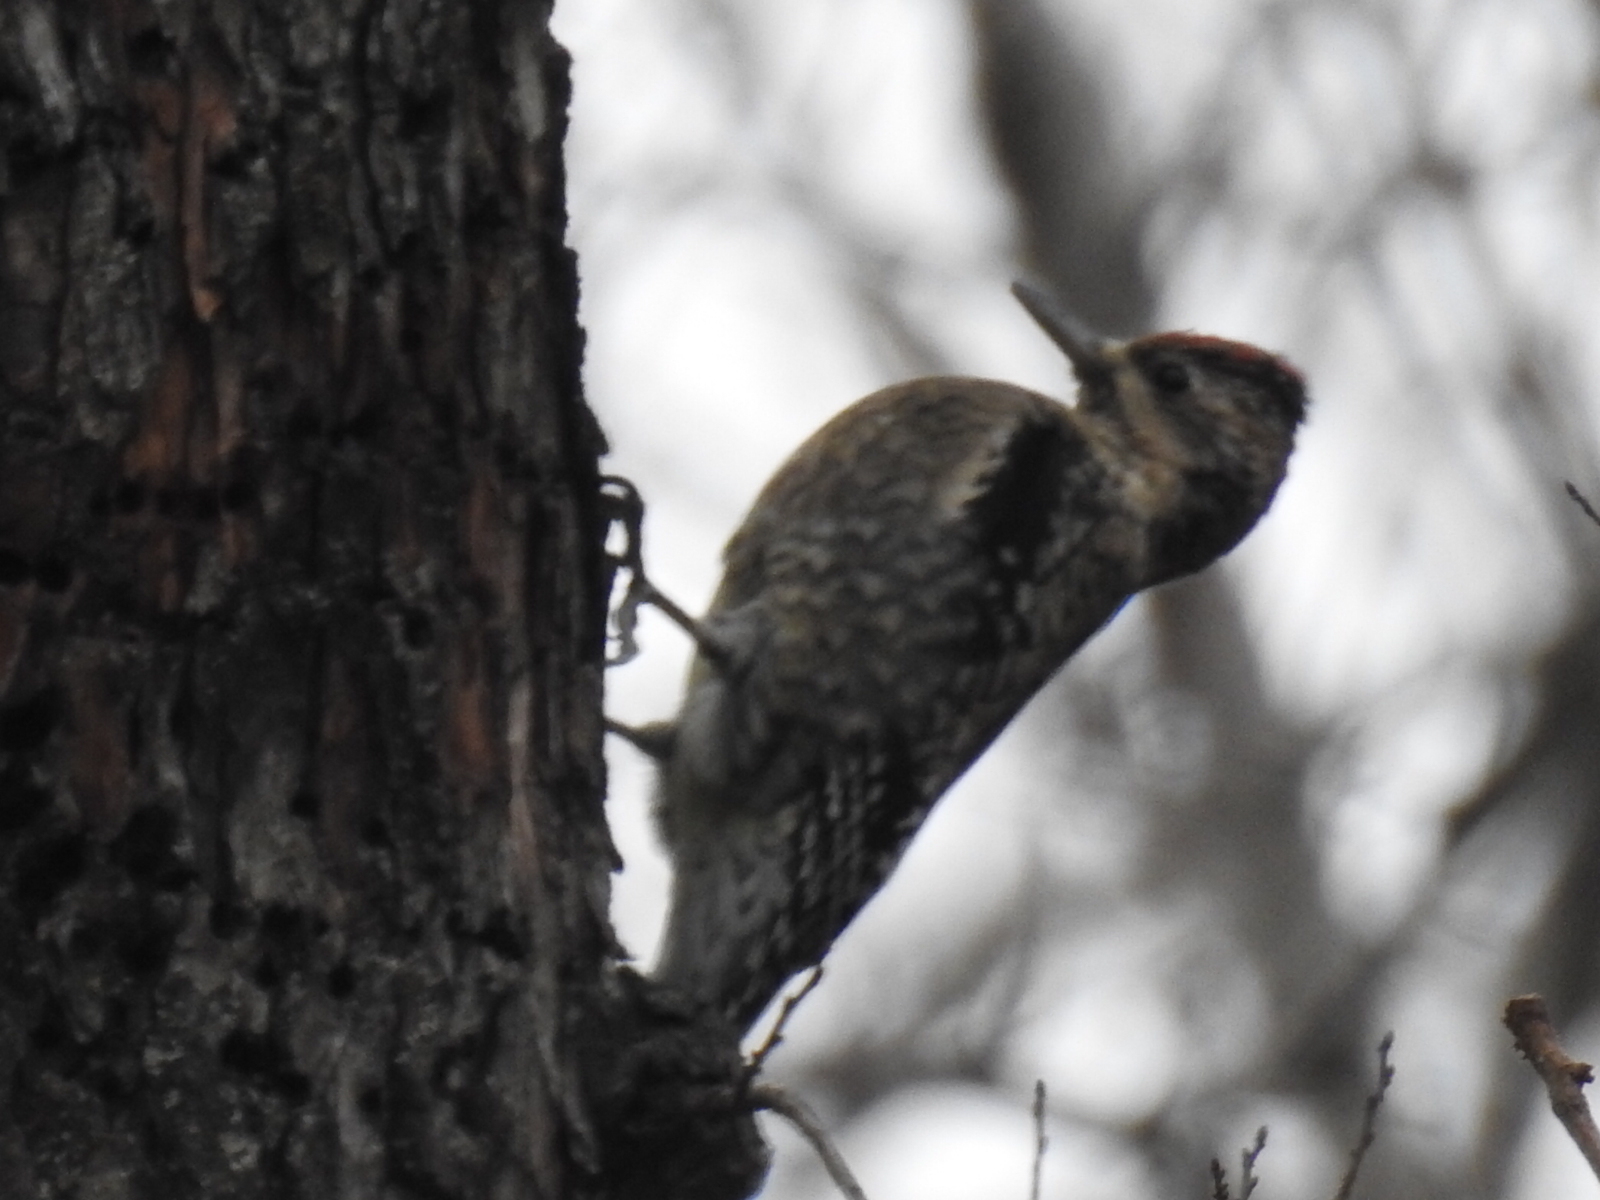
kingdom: Animalia
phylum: Chordata
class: Aves
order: Piciformes
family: Picidae
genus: Sphyrapicus
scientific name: Sphyrapicus varius
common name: Yellow-bellied sapsucker
